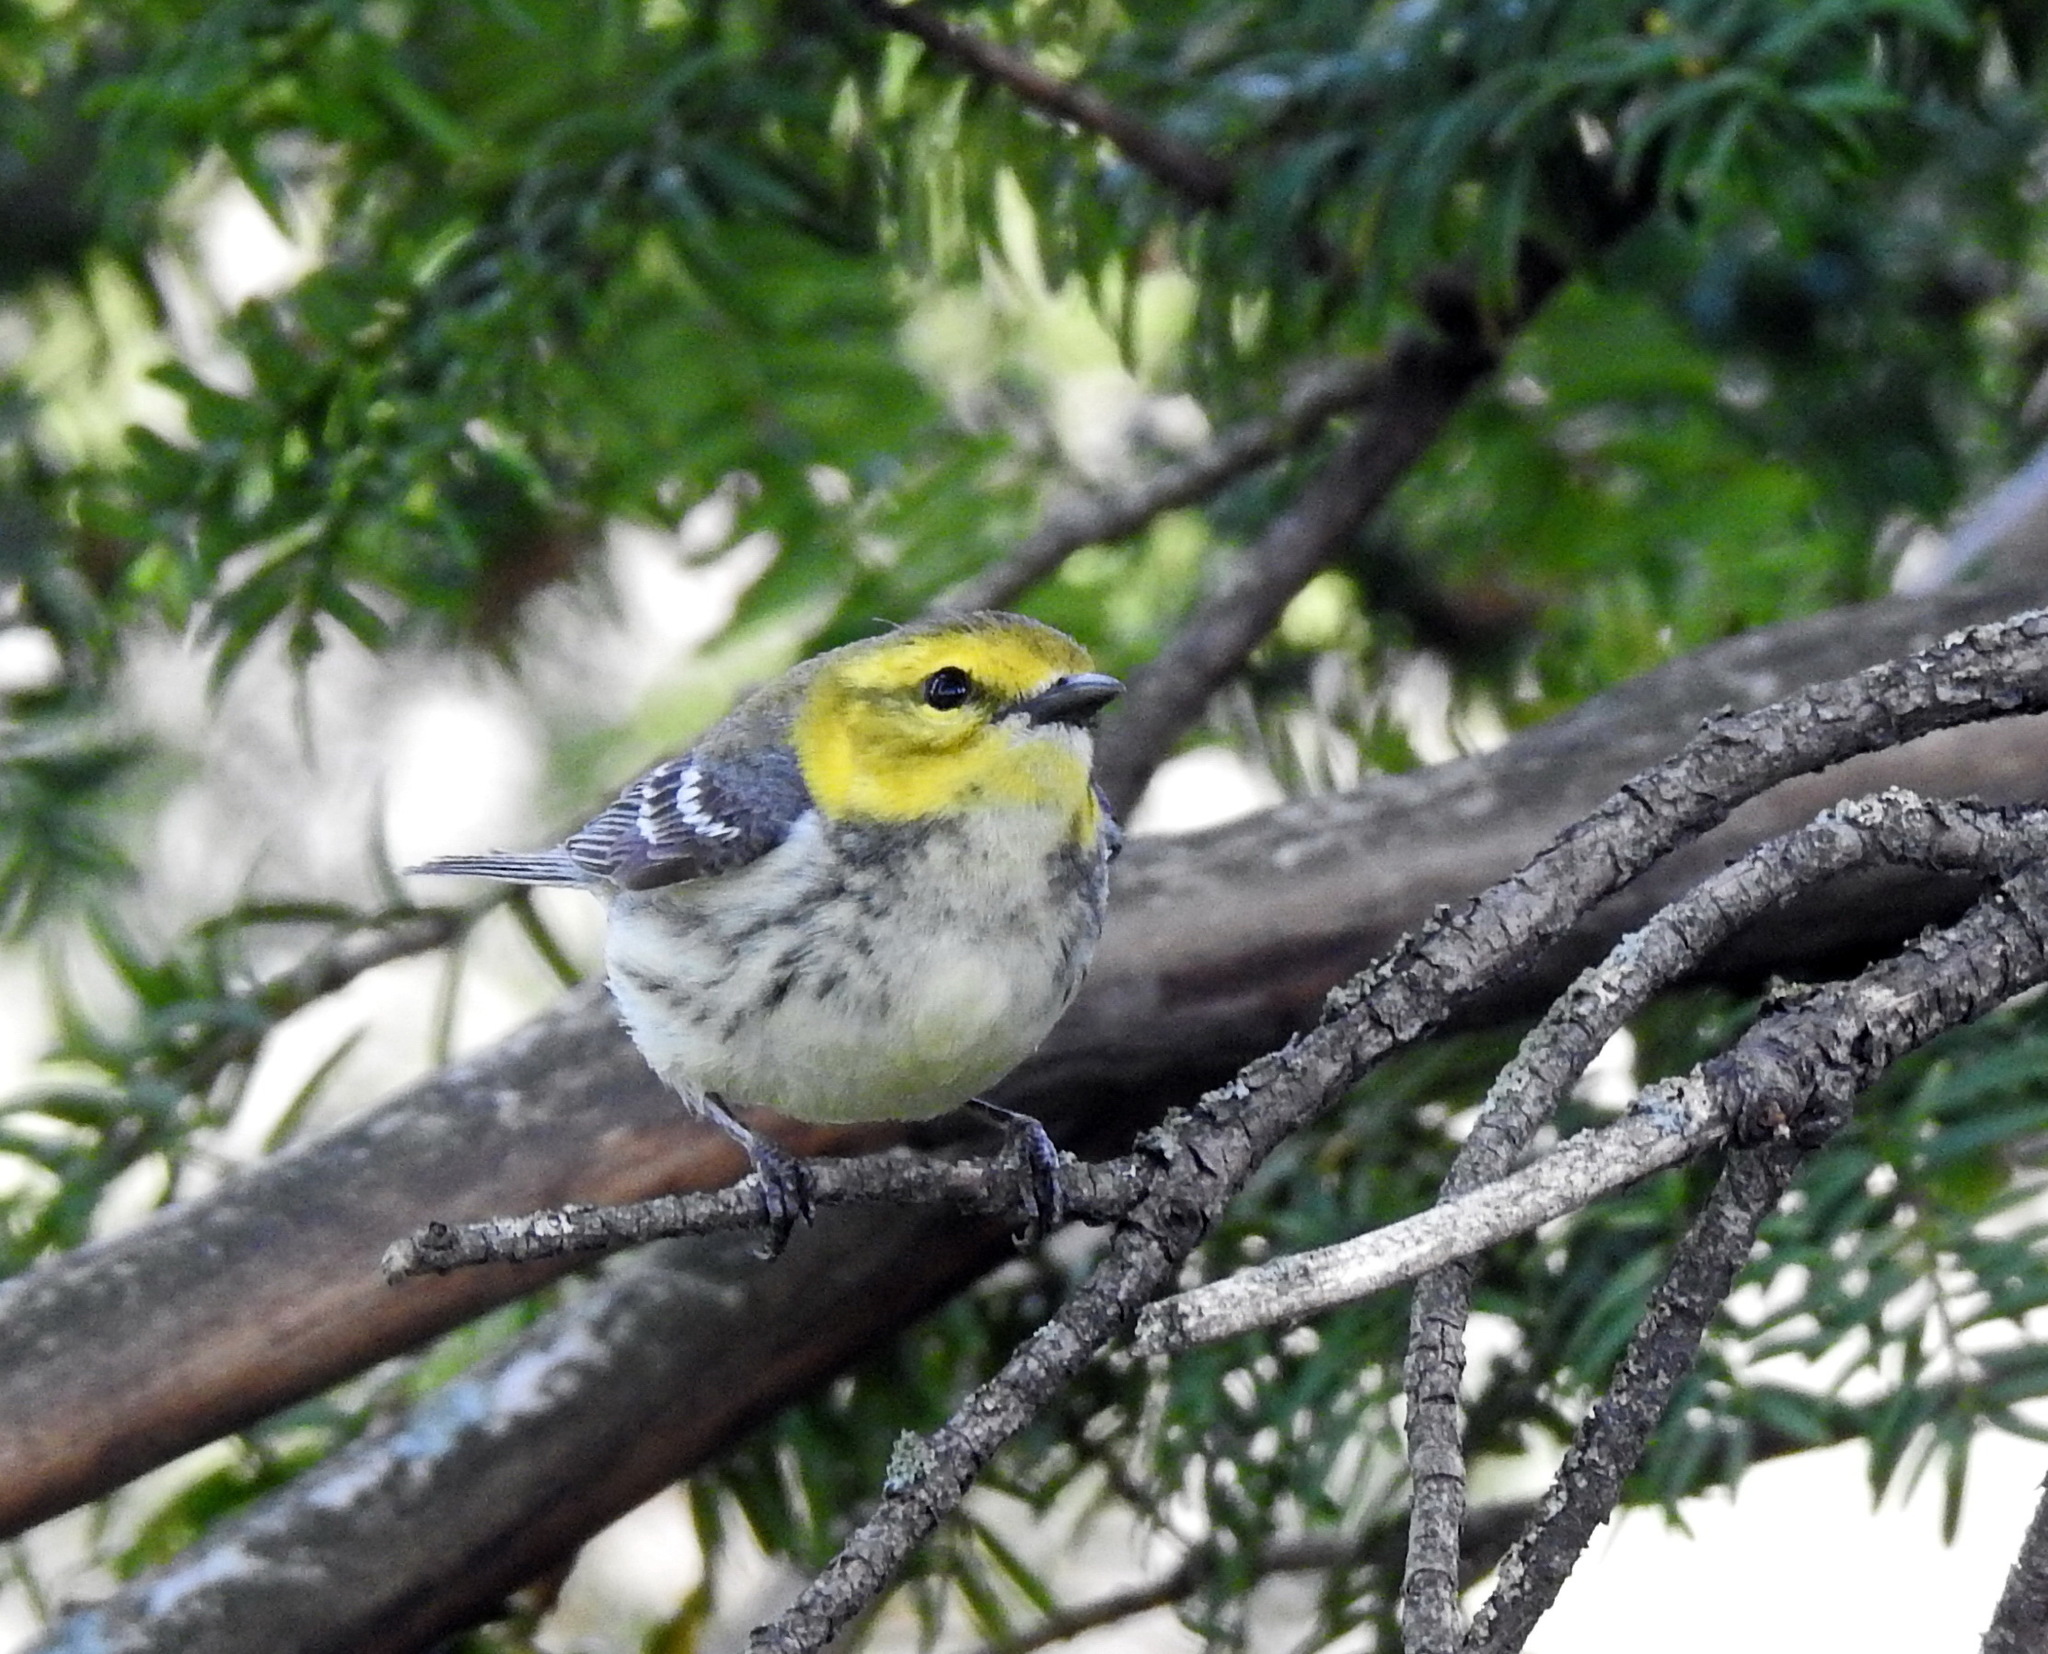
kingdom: Animalia
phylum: Chordata
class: Aves
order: Passeriformes
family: Parulidae
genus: Setophaga
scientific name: Setophaga virens
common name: Black-throated green warbler
